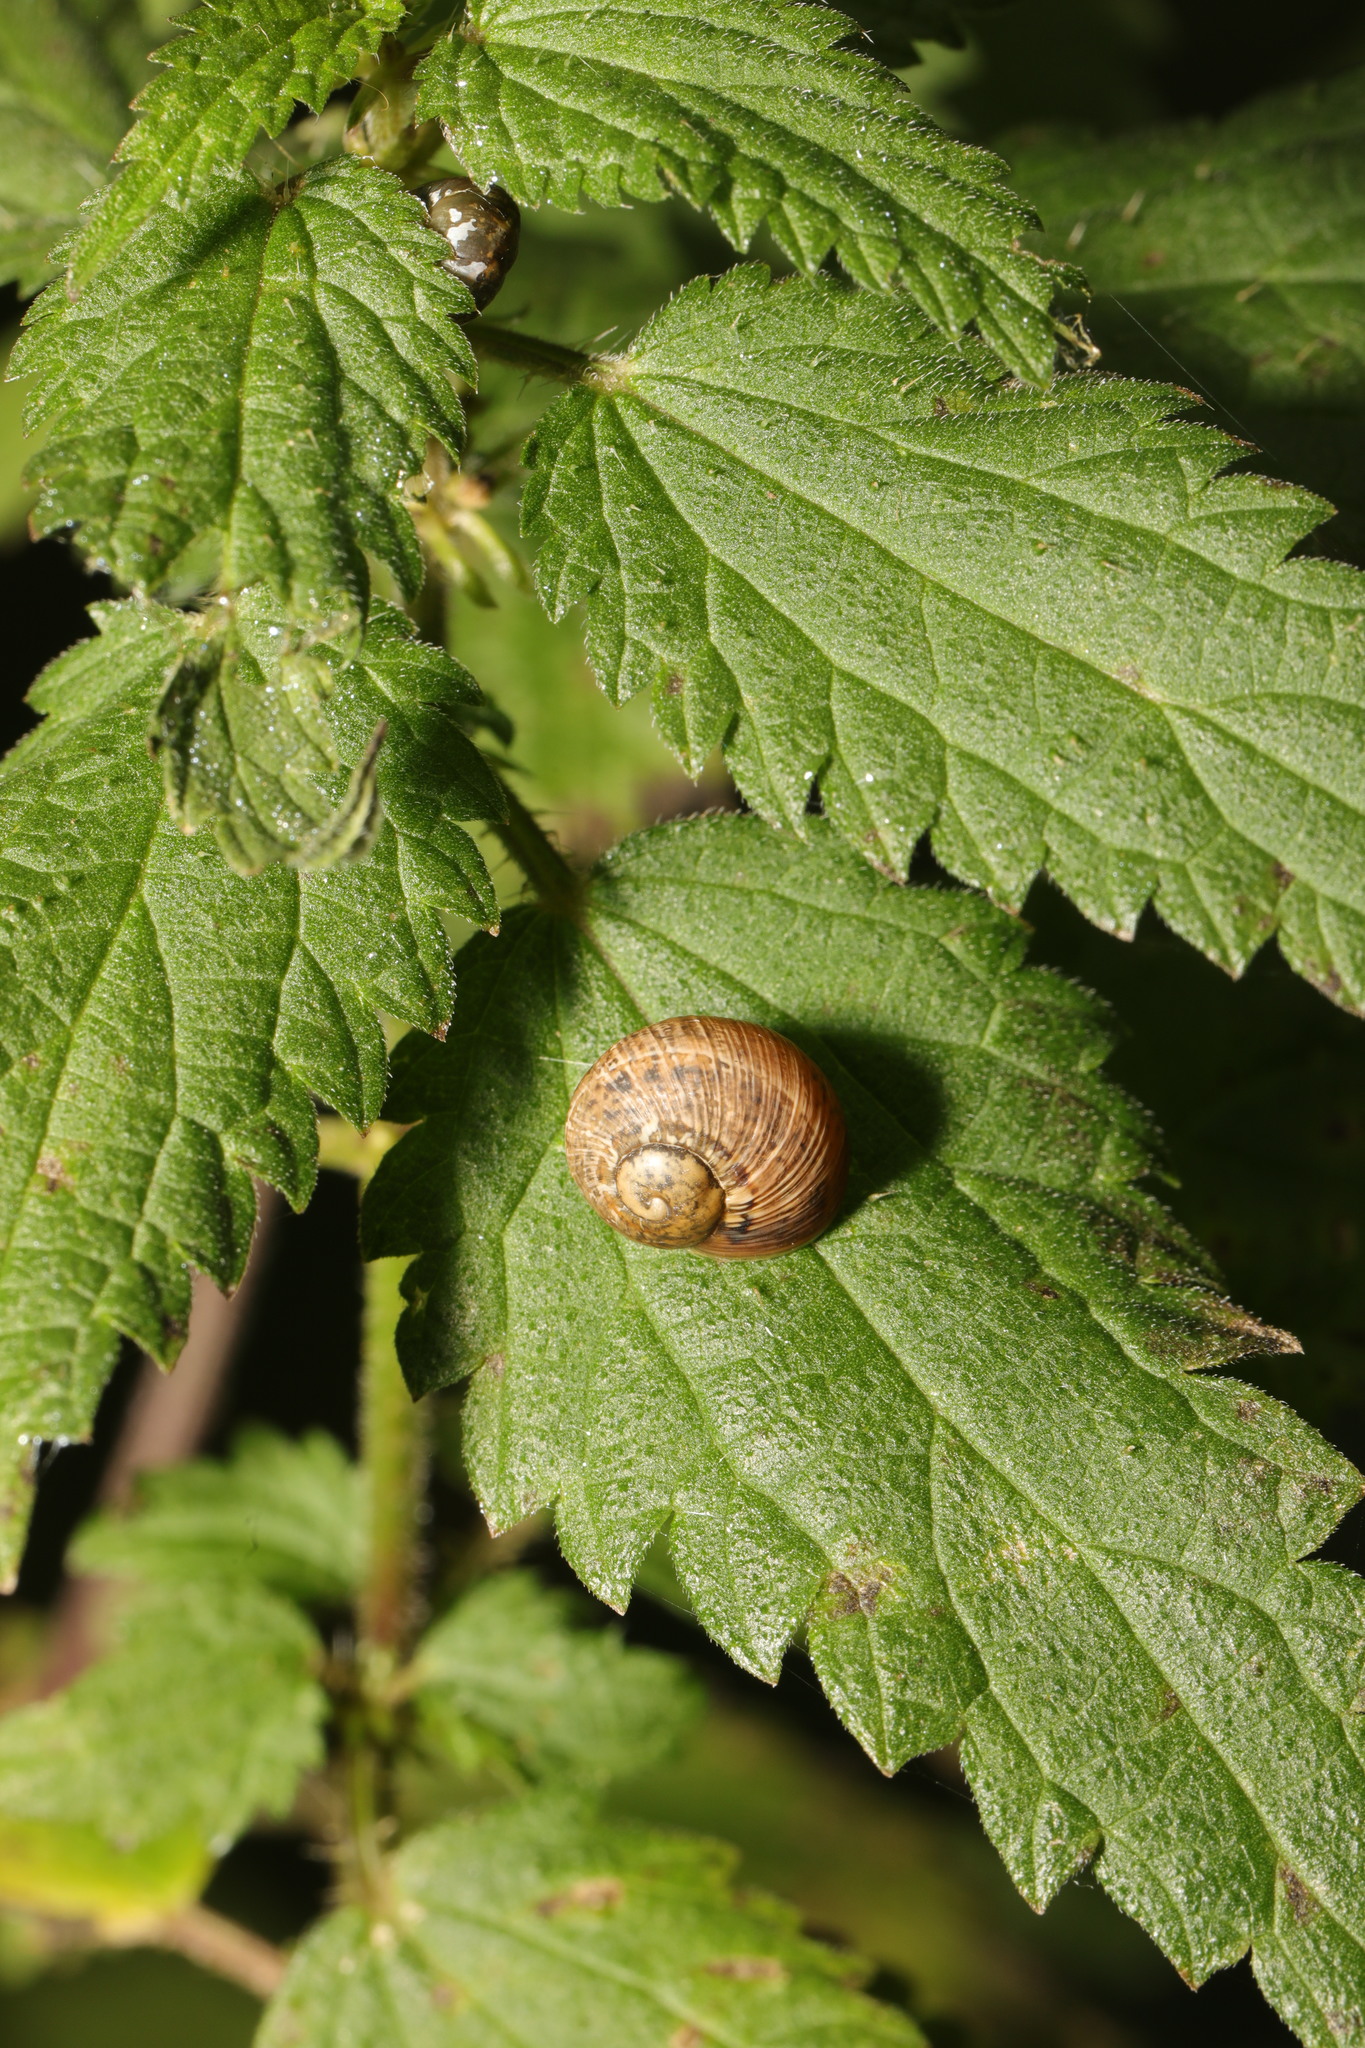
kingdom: Animalia
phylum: Mollusca
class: Gastropoda
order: Stylommatophora
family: Helicidae
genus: Cornu
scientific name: Cornu aspersum
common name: Brown garden snail
